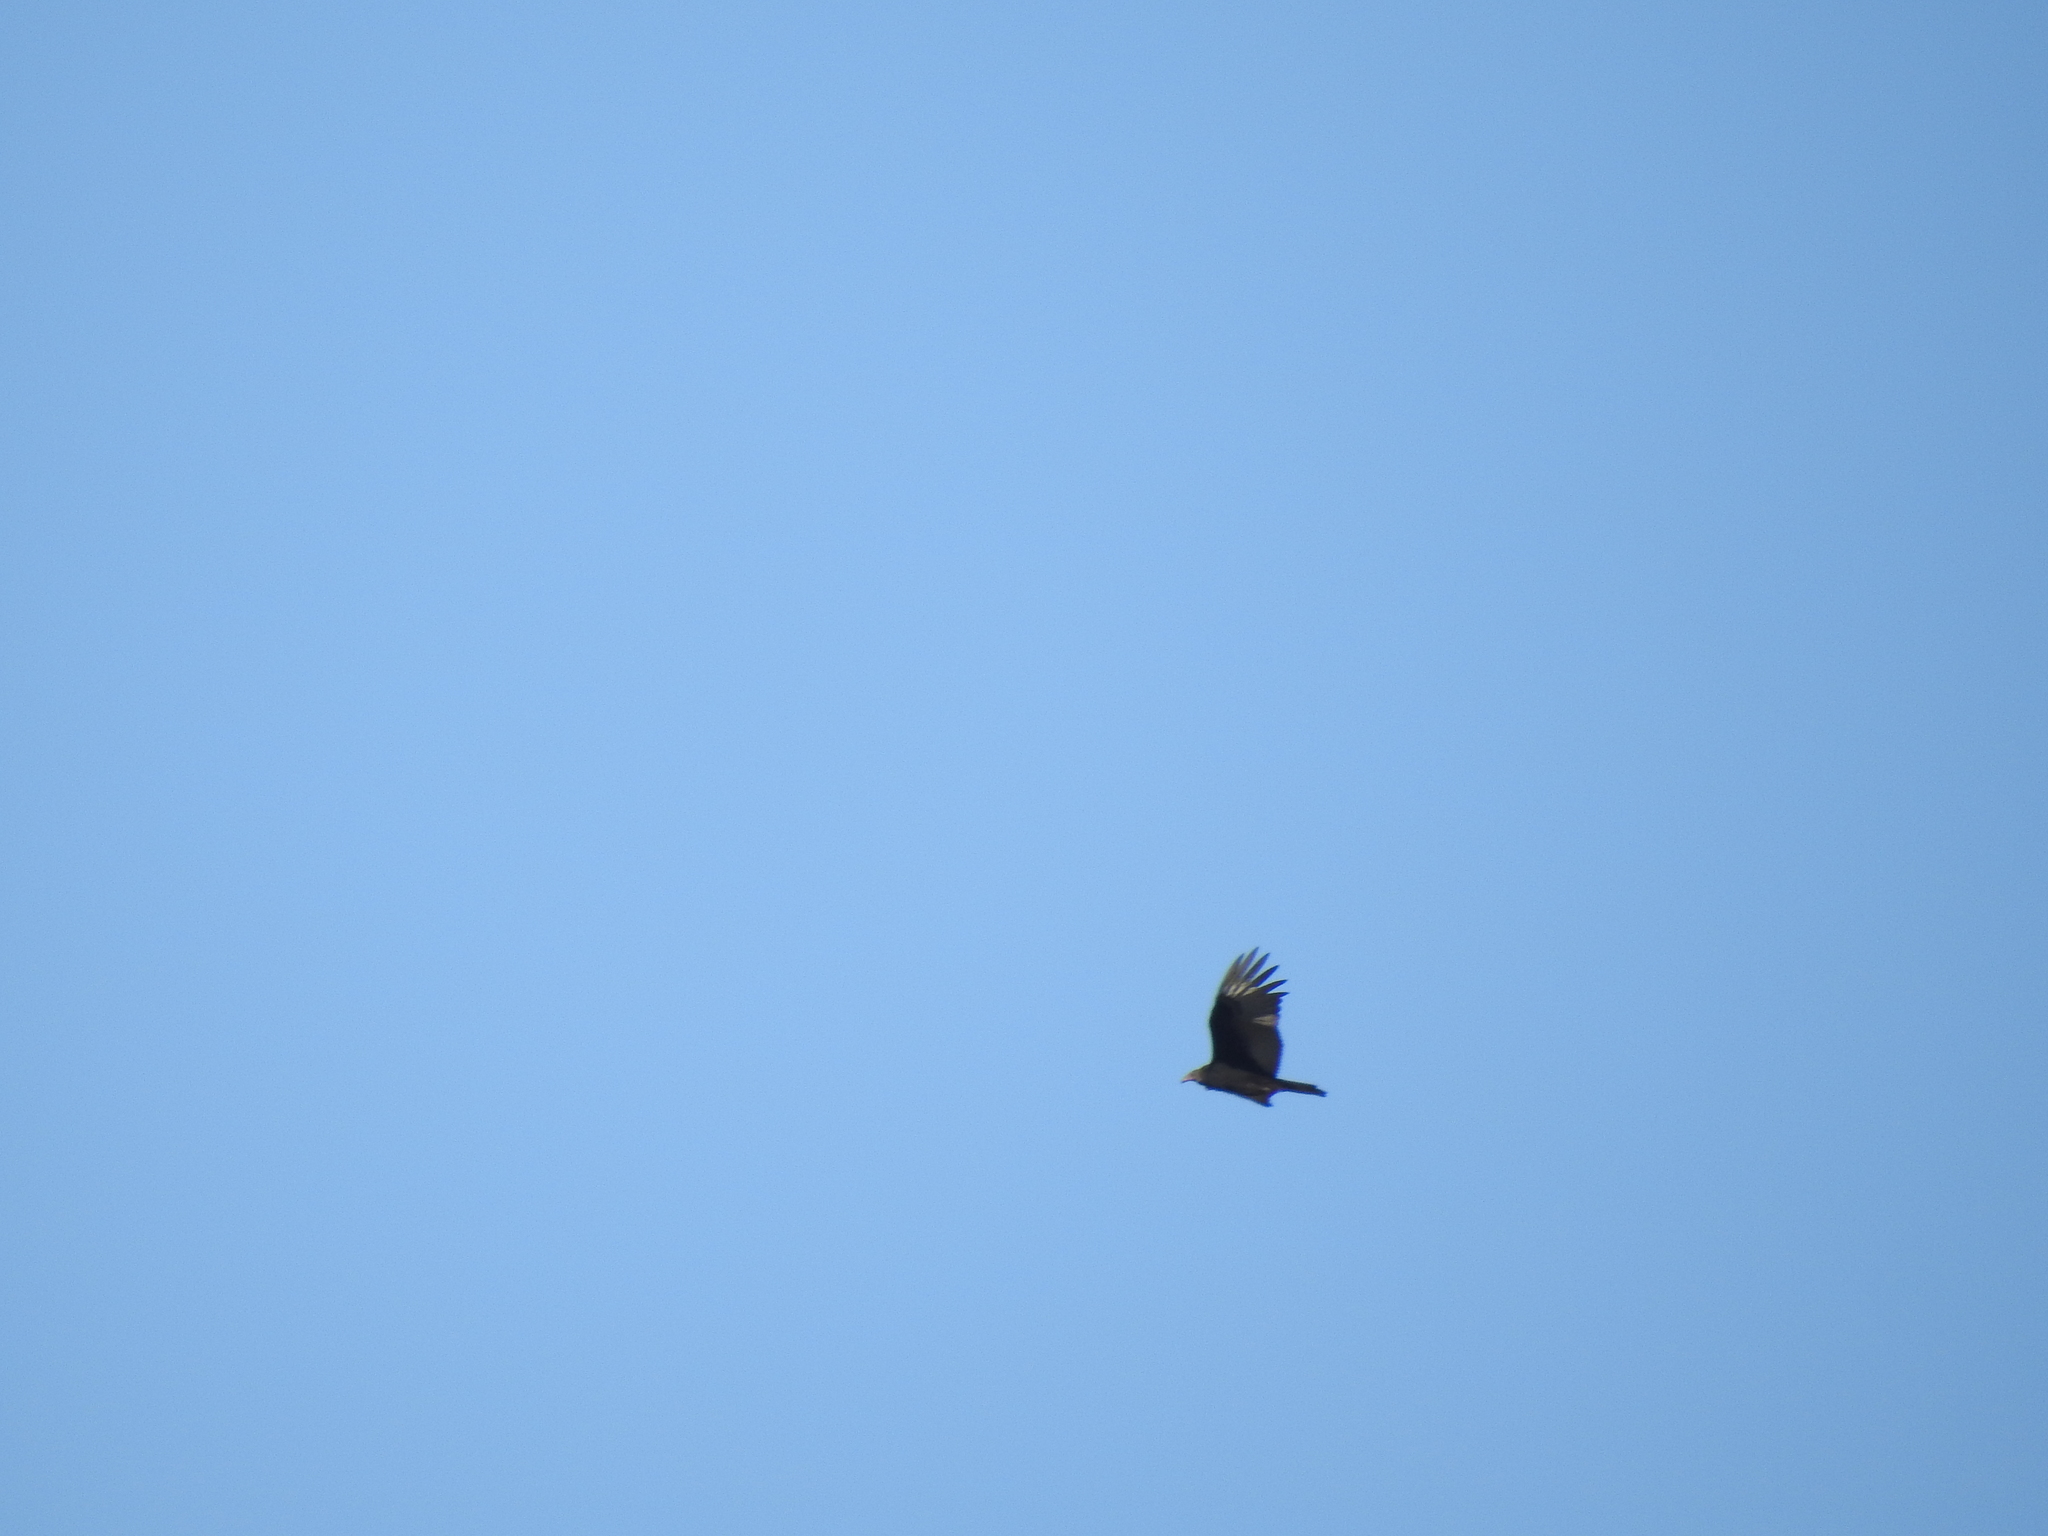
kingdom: Animalia
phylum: Chordata
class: Aves
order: Accipitriformes
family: Cathartidae
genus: Cathartes
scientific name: Cathartes aura
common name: Turkey vulture
